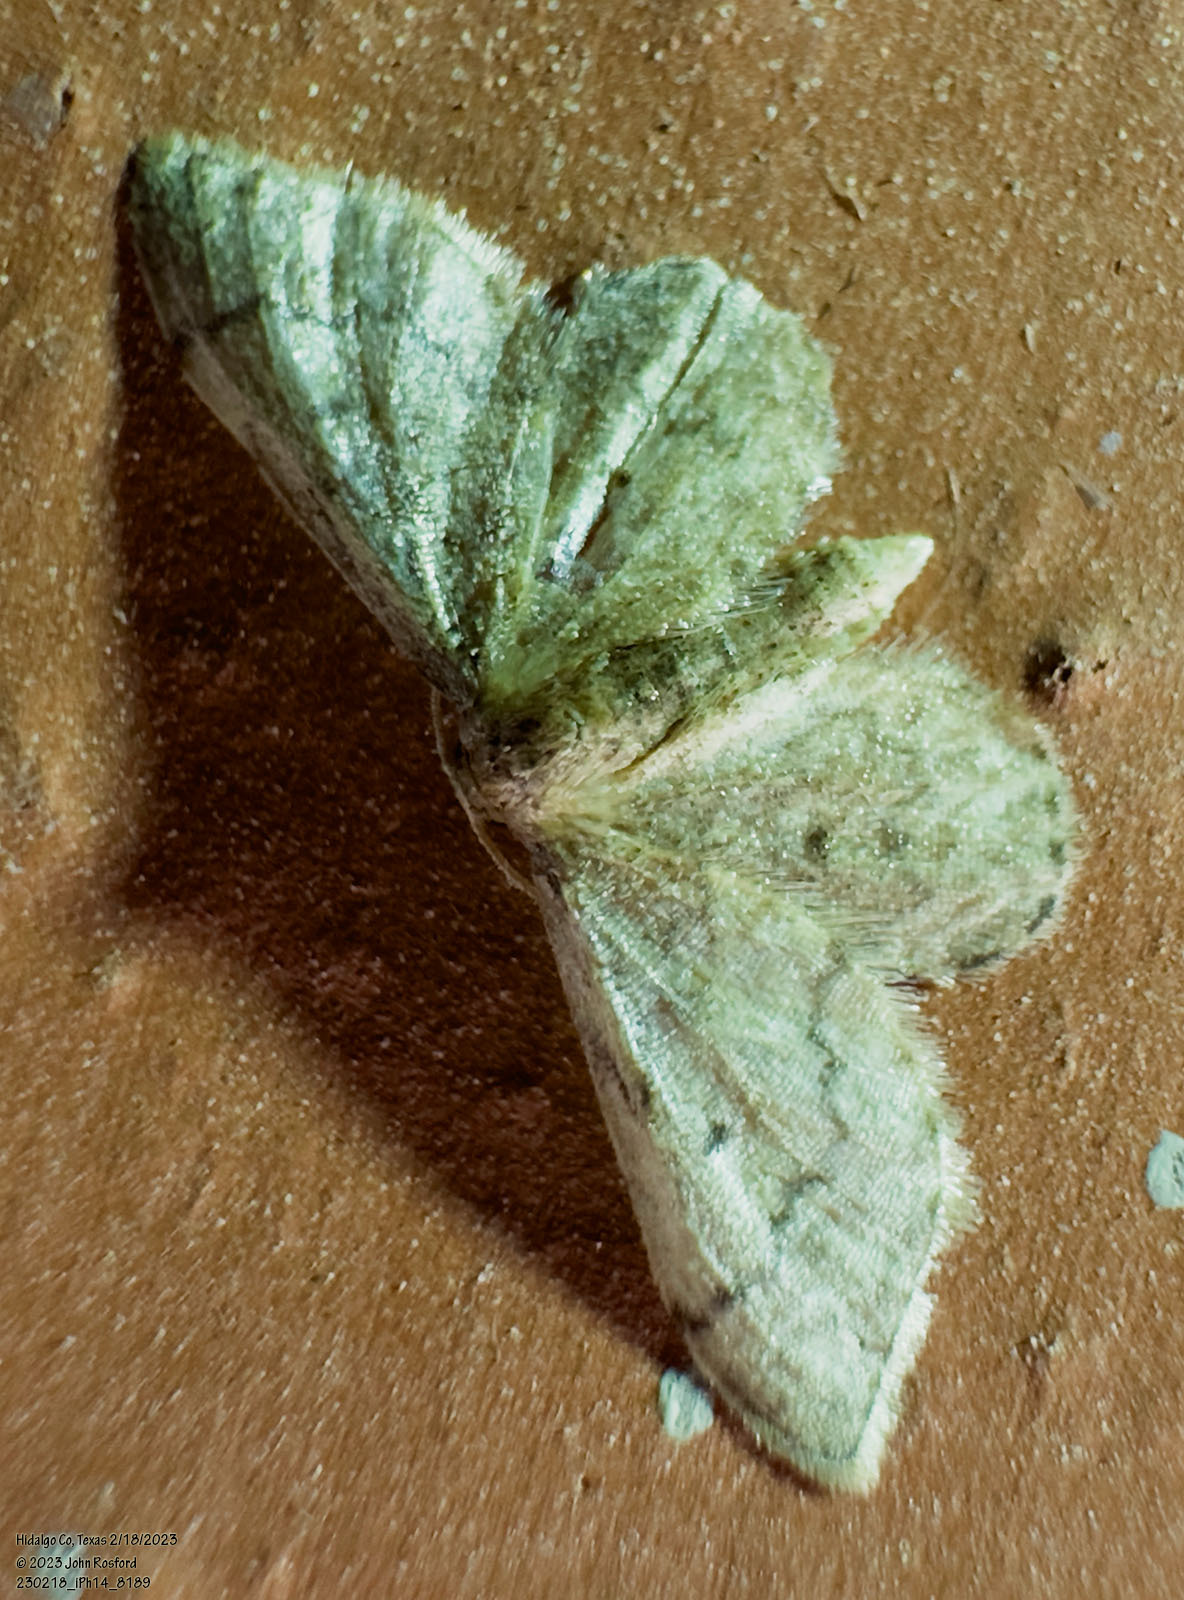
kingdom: Animalia
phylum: Arthropoda
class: Insecta
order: Lepidoptera
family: Geometridae
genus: Idaea
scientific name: Idaea celtima
